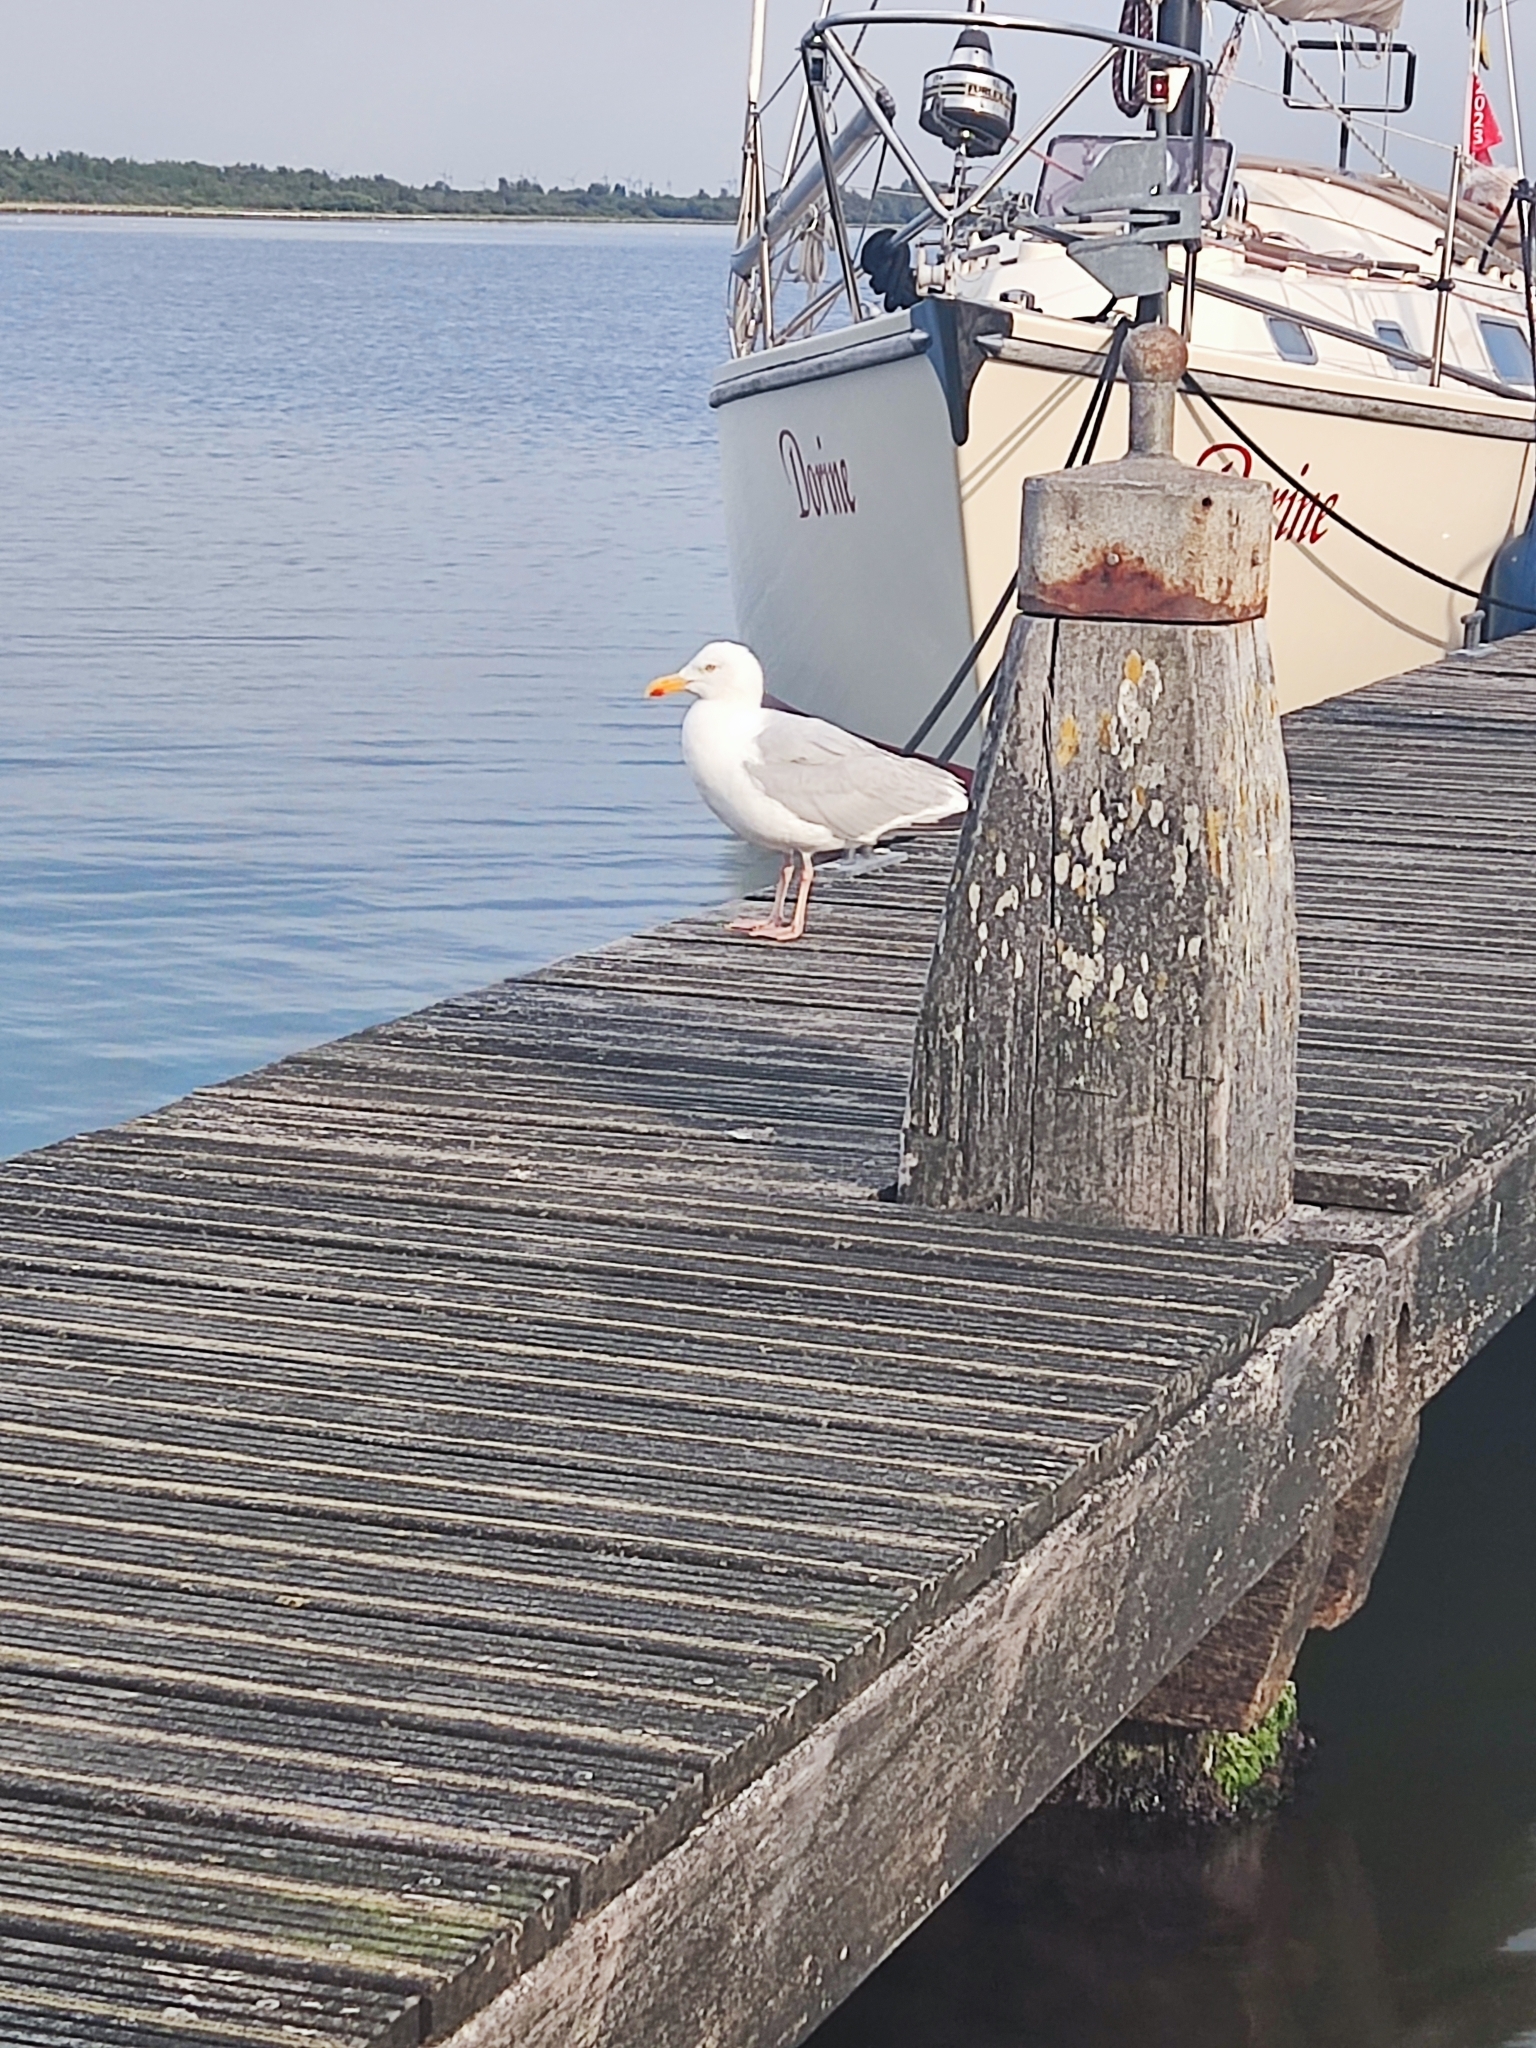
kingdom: Animalia
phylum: Chordata
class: Aves
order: Charadriiformes
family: Laridae
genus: Larus
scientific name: Larus argentatus
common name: Herring gull
